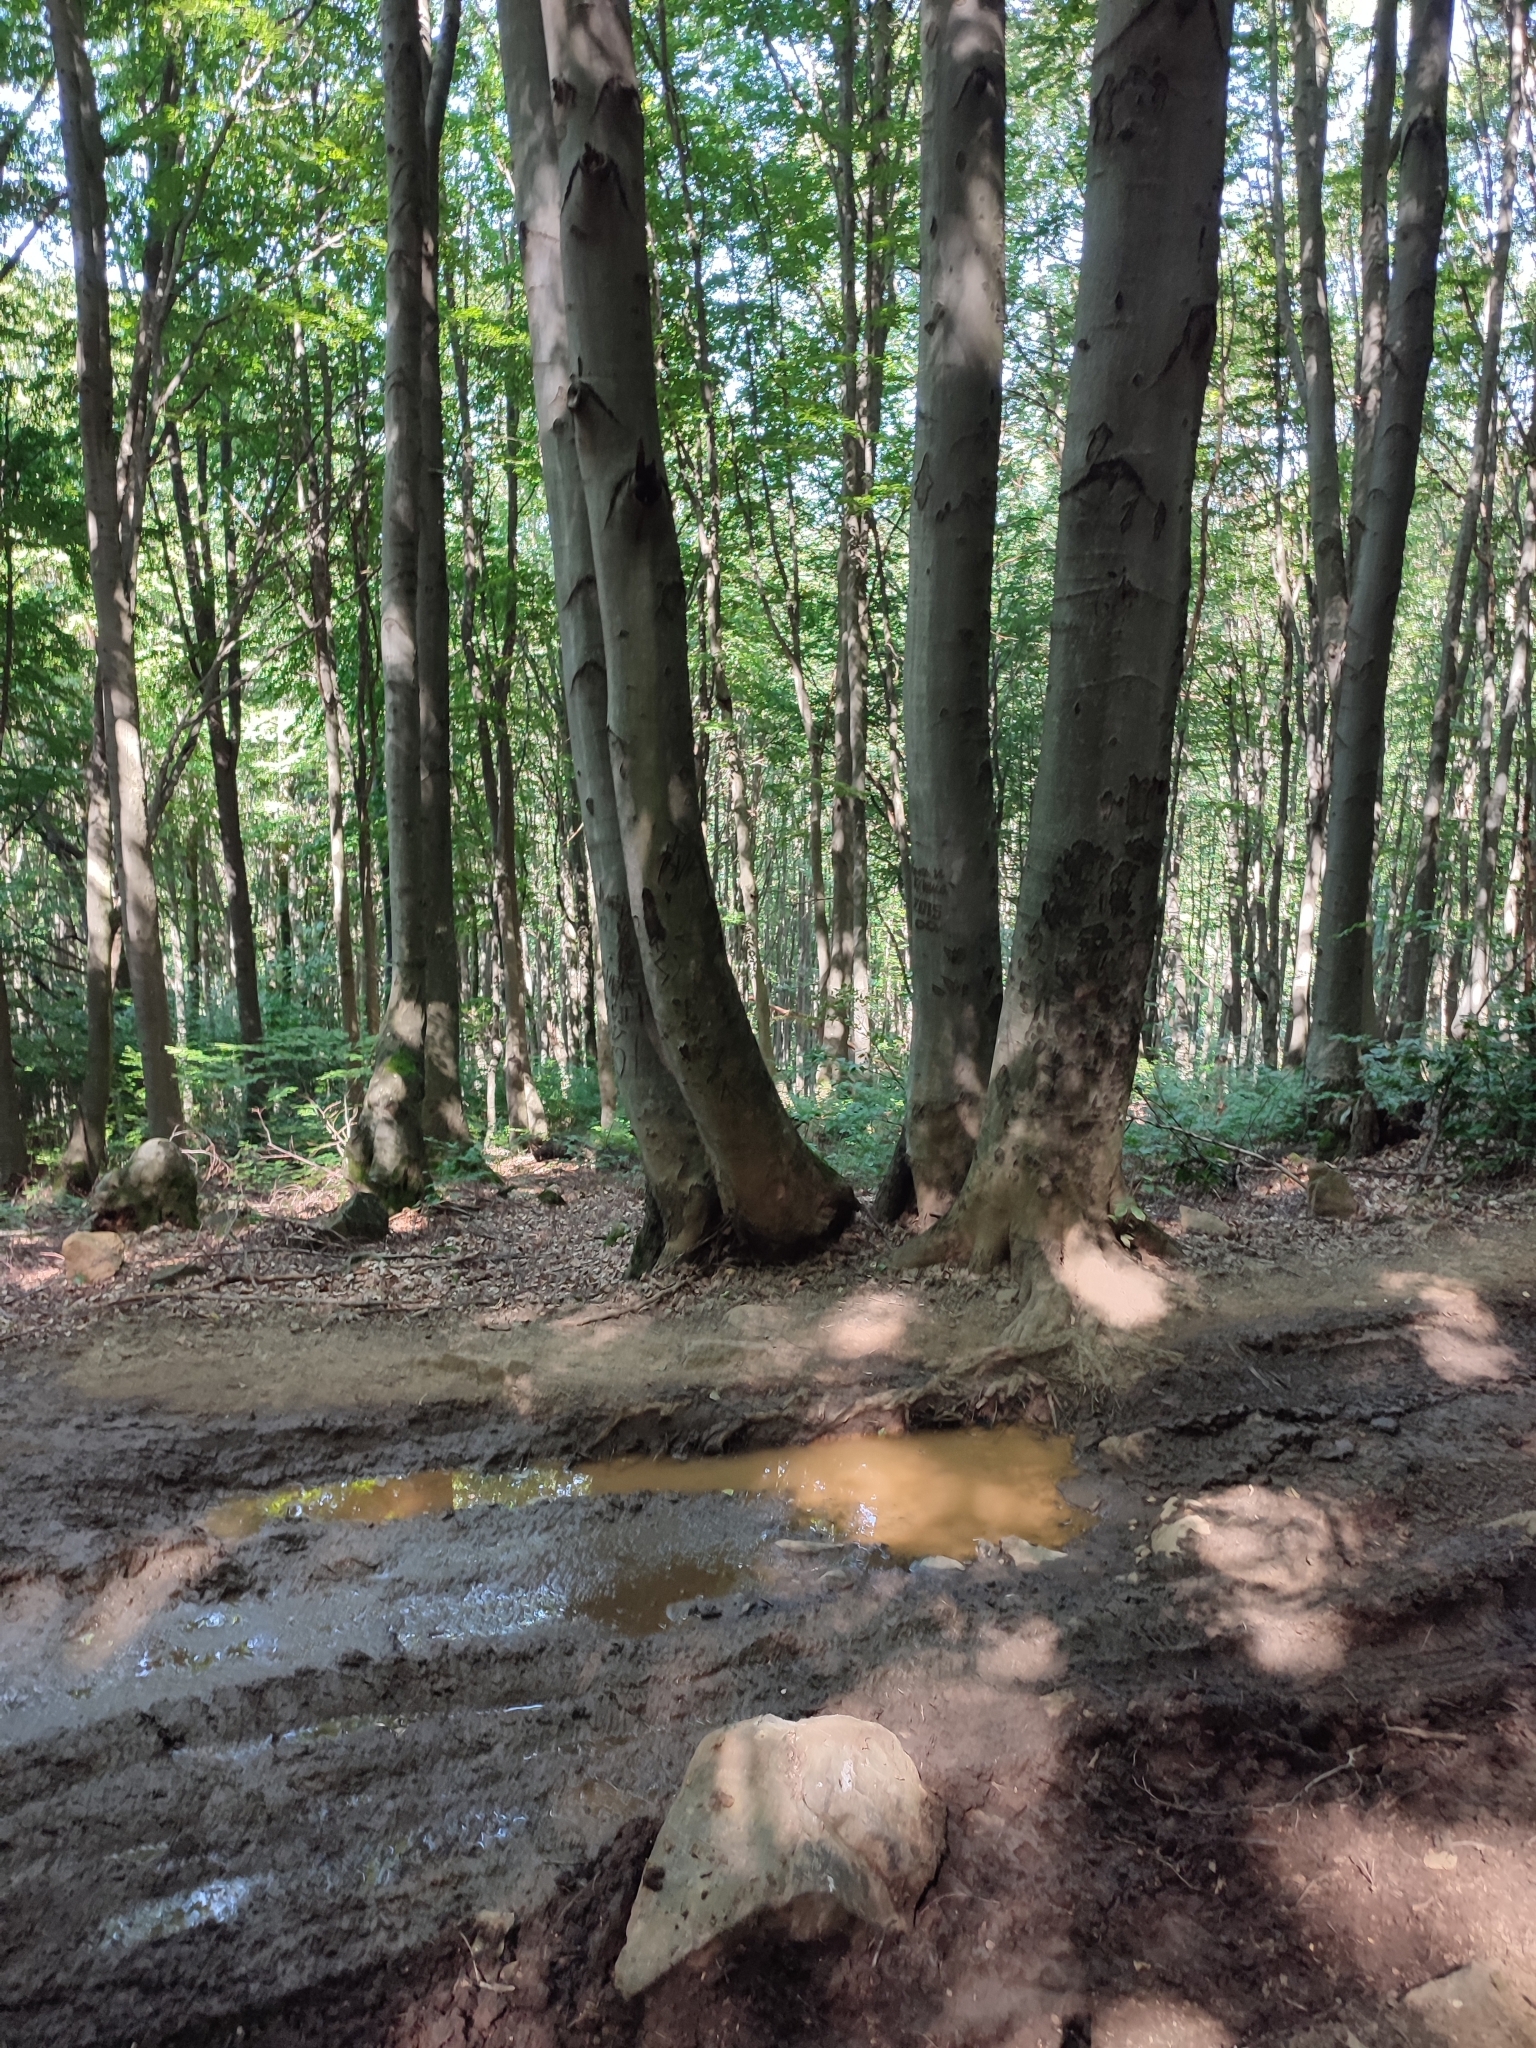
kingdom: Plantae
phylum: Tracheophyta
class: Magnoliopsida
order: Fagales
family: Fagaceae
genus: Fagus
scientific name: Fagus sylvatica
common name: Beech
